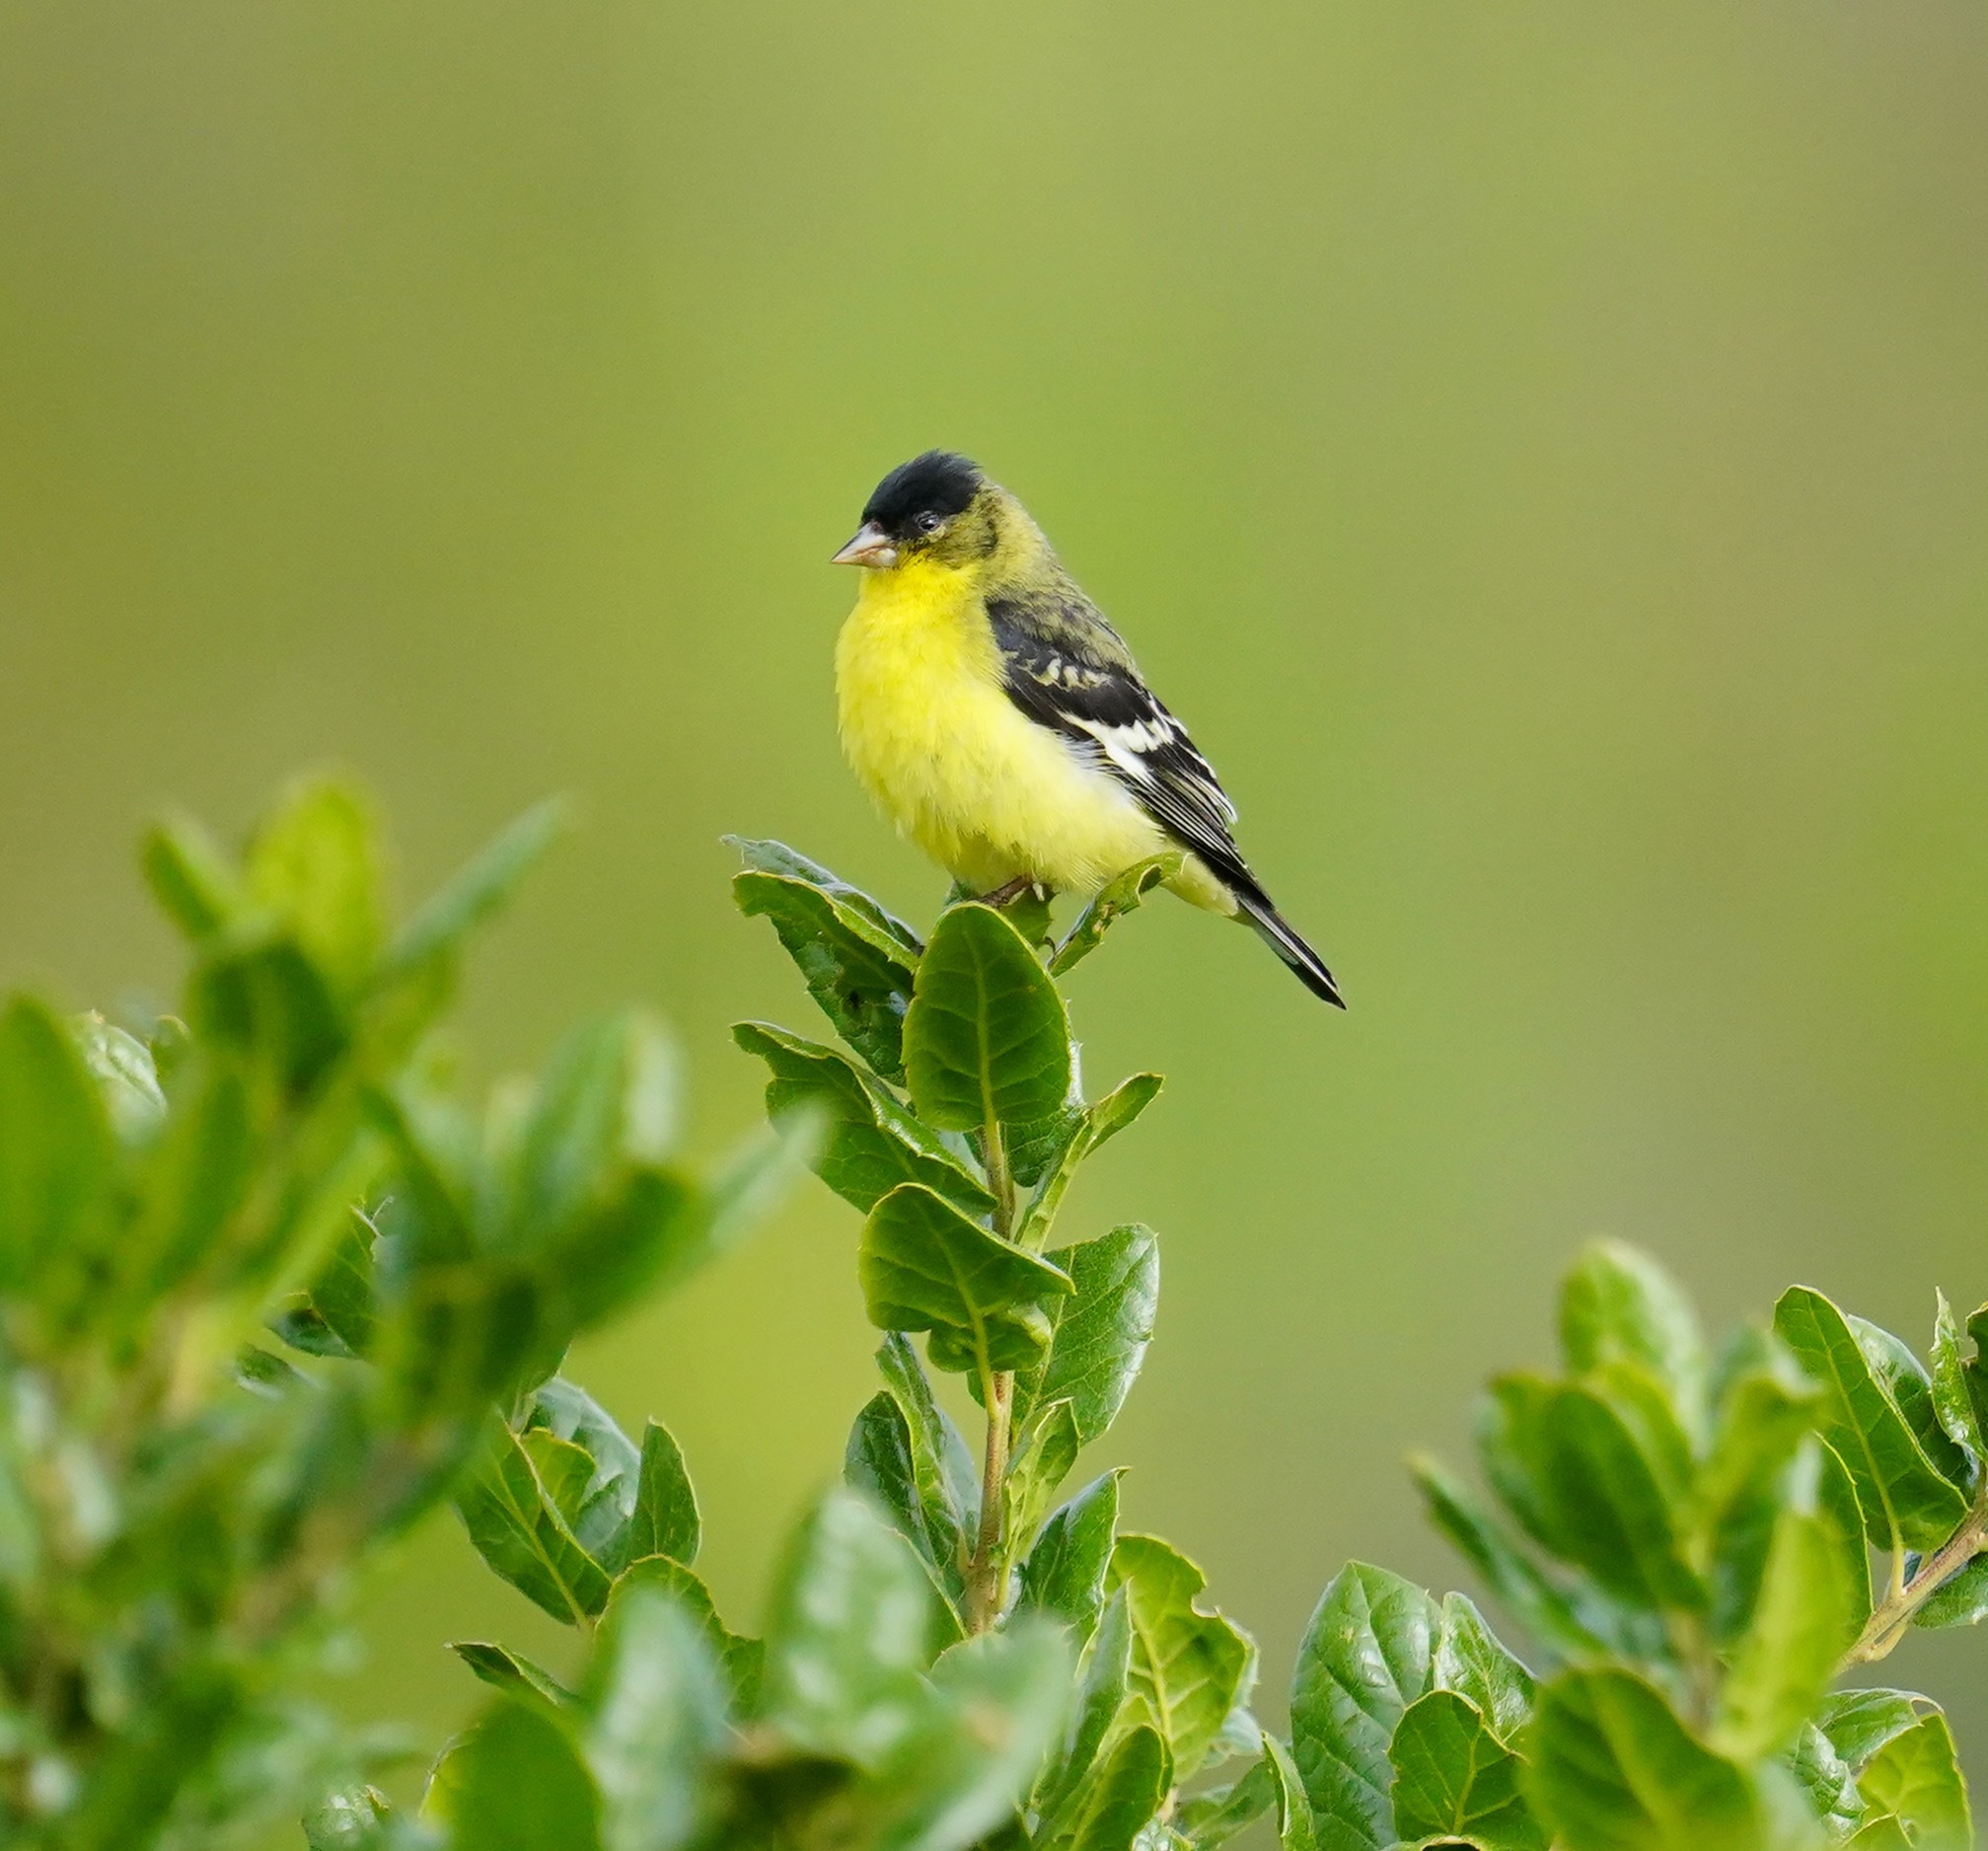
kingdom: Animalia
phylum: Chordata
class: Aves
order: Passeriformes
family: Fringillidae
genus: Spinus
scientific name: Spinus psaltria
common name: Lesser goldfinch
